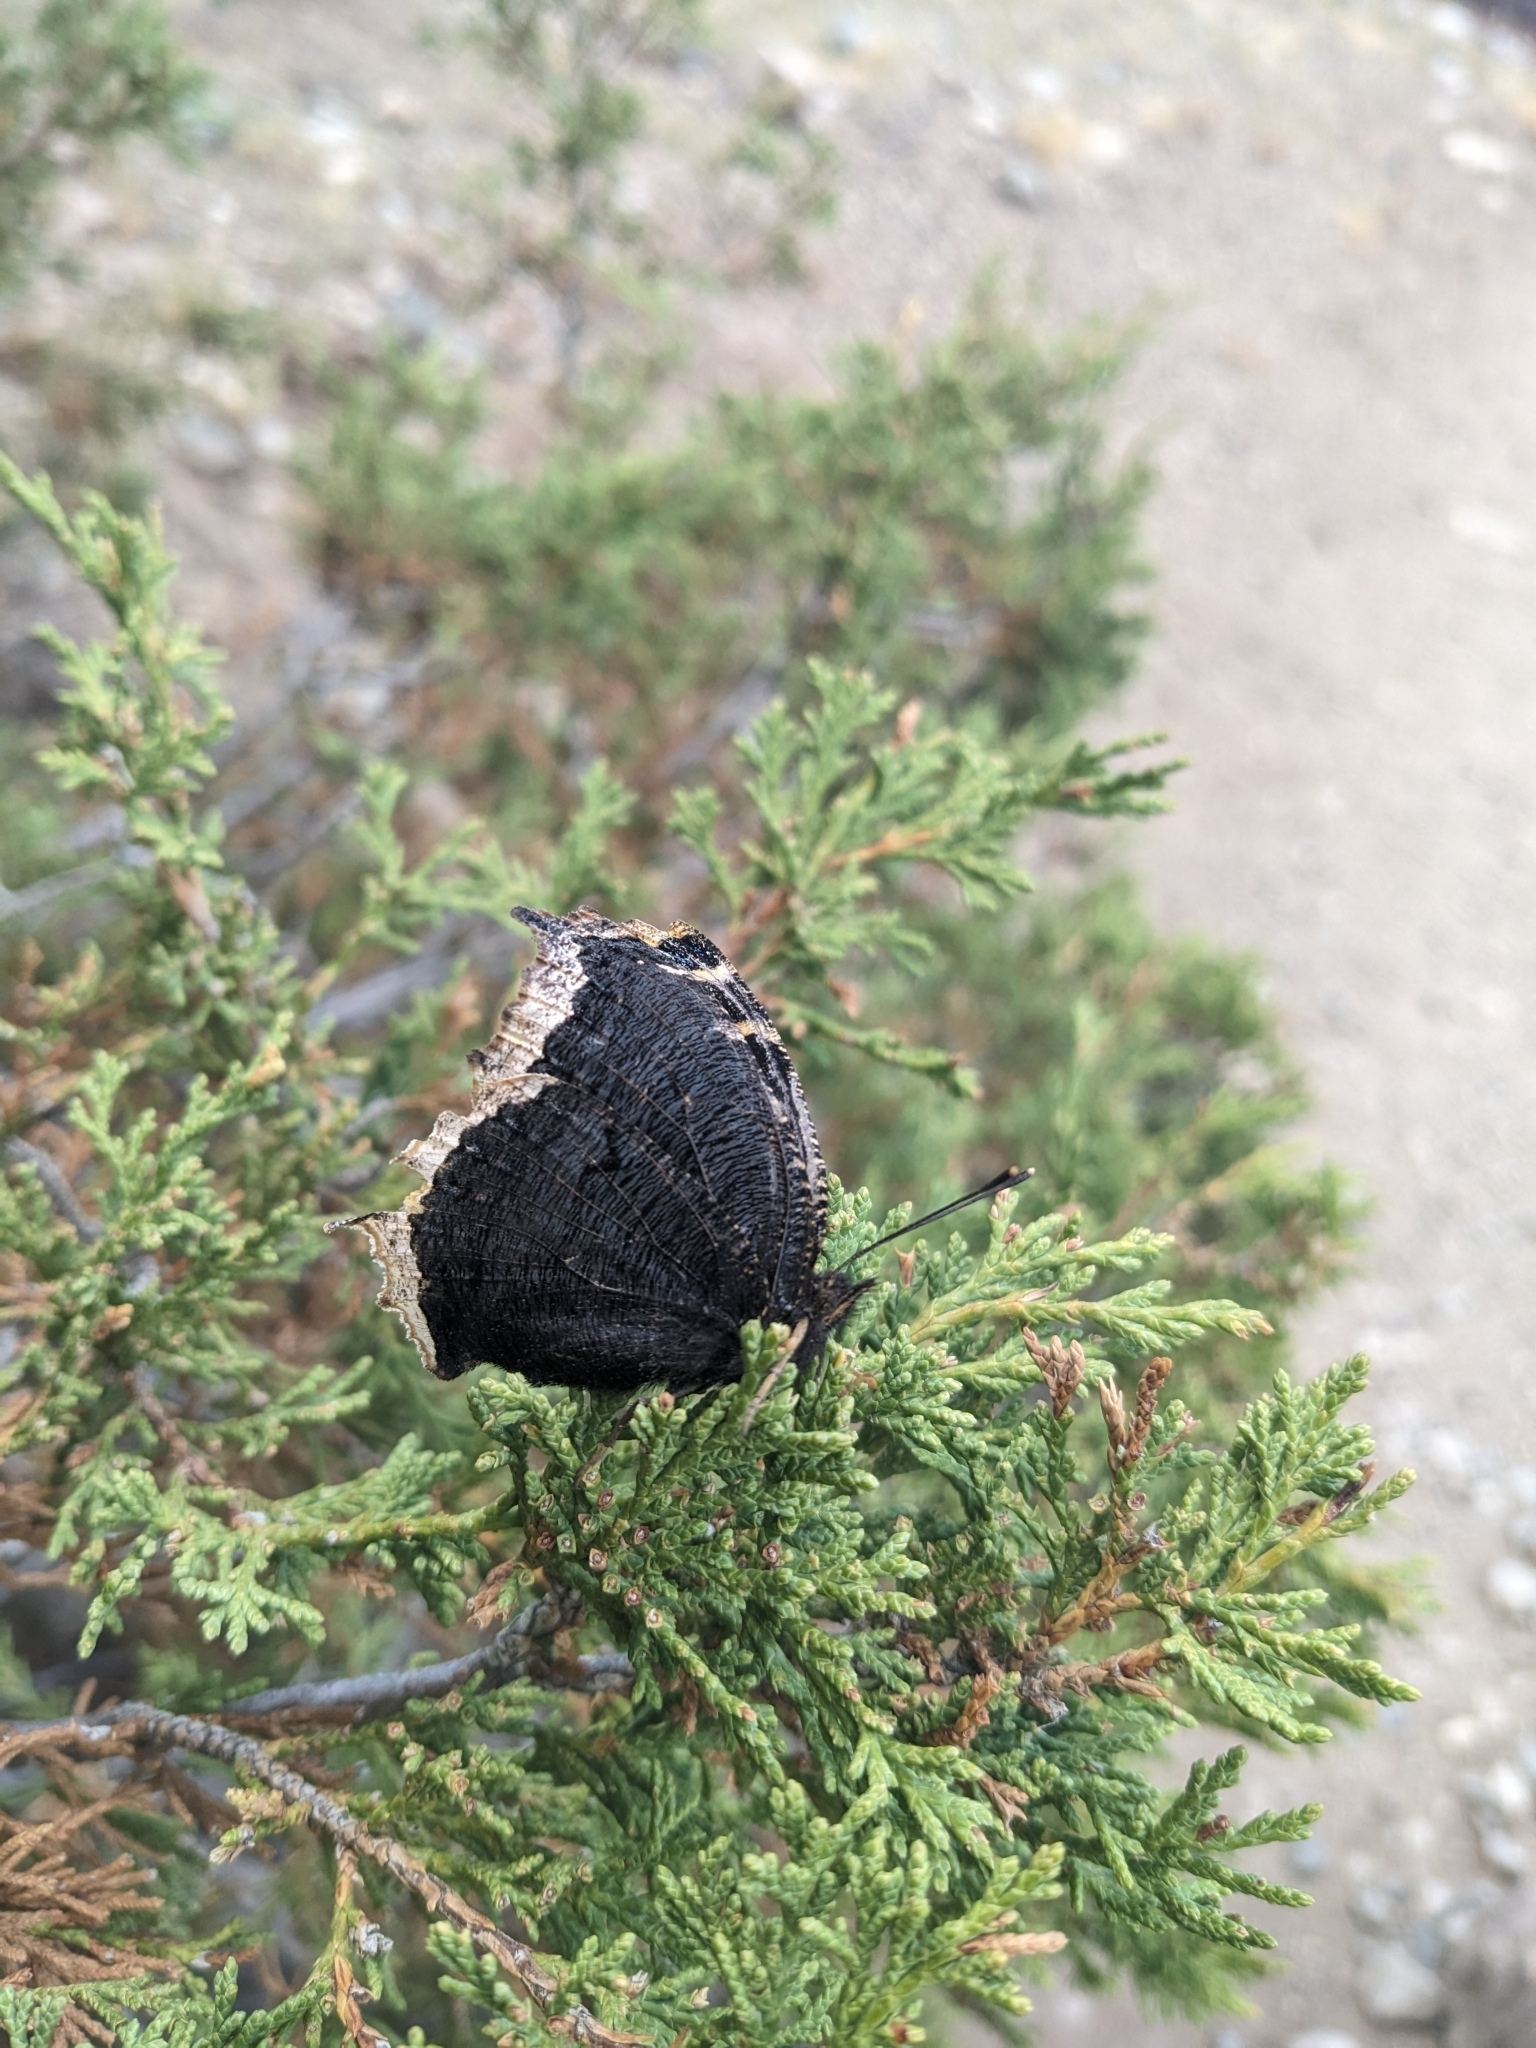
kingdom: Animalia
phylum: Arthropoda
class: Insecta
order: Lepidoptera
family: Nymphalidae
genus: Nymphalis
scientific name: Nymphalis antiopa
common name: Camberwell beauty
